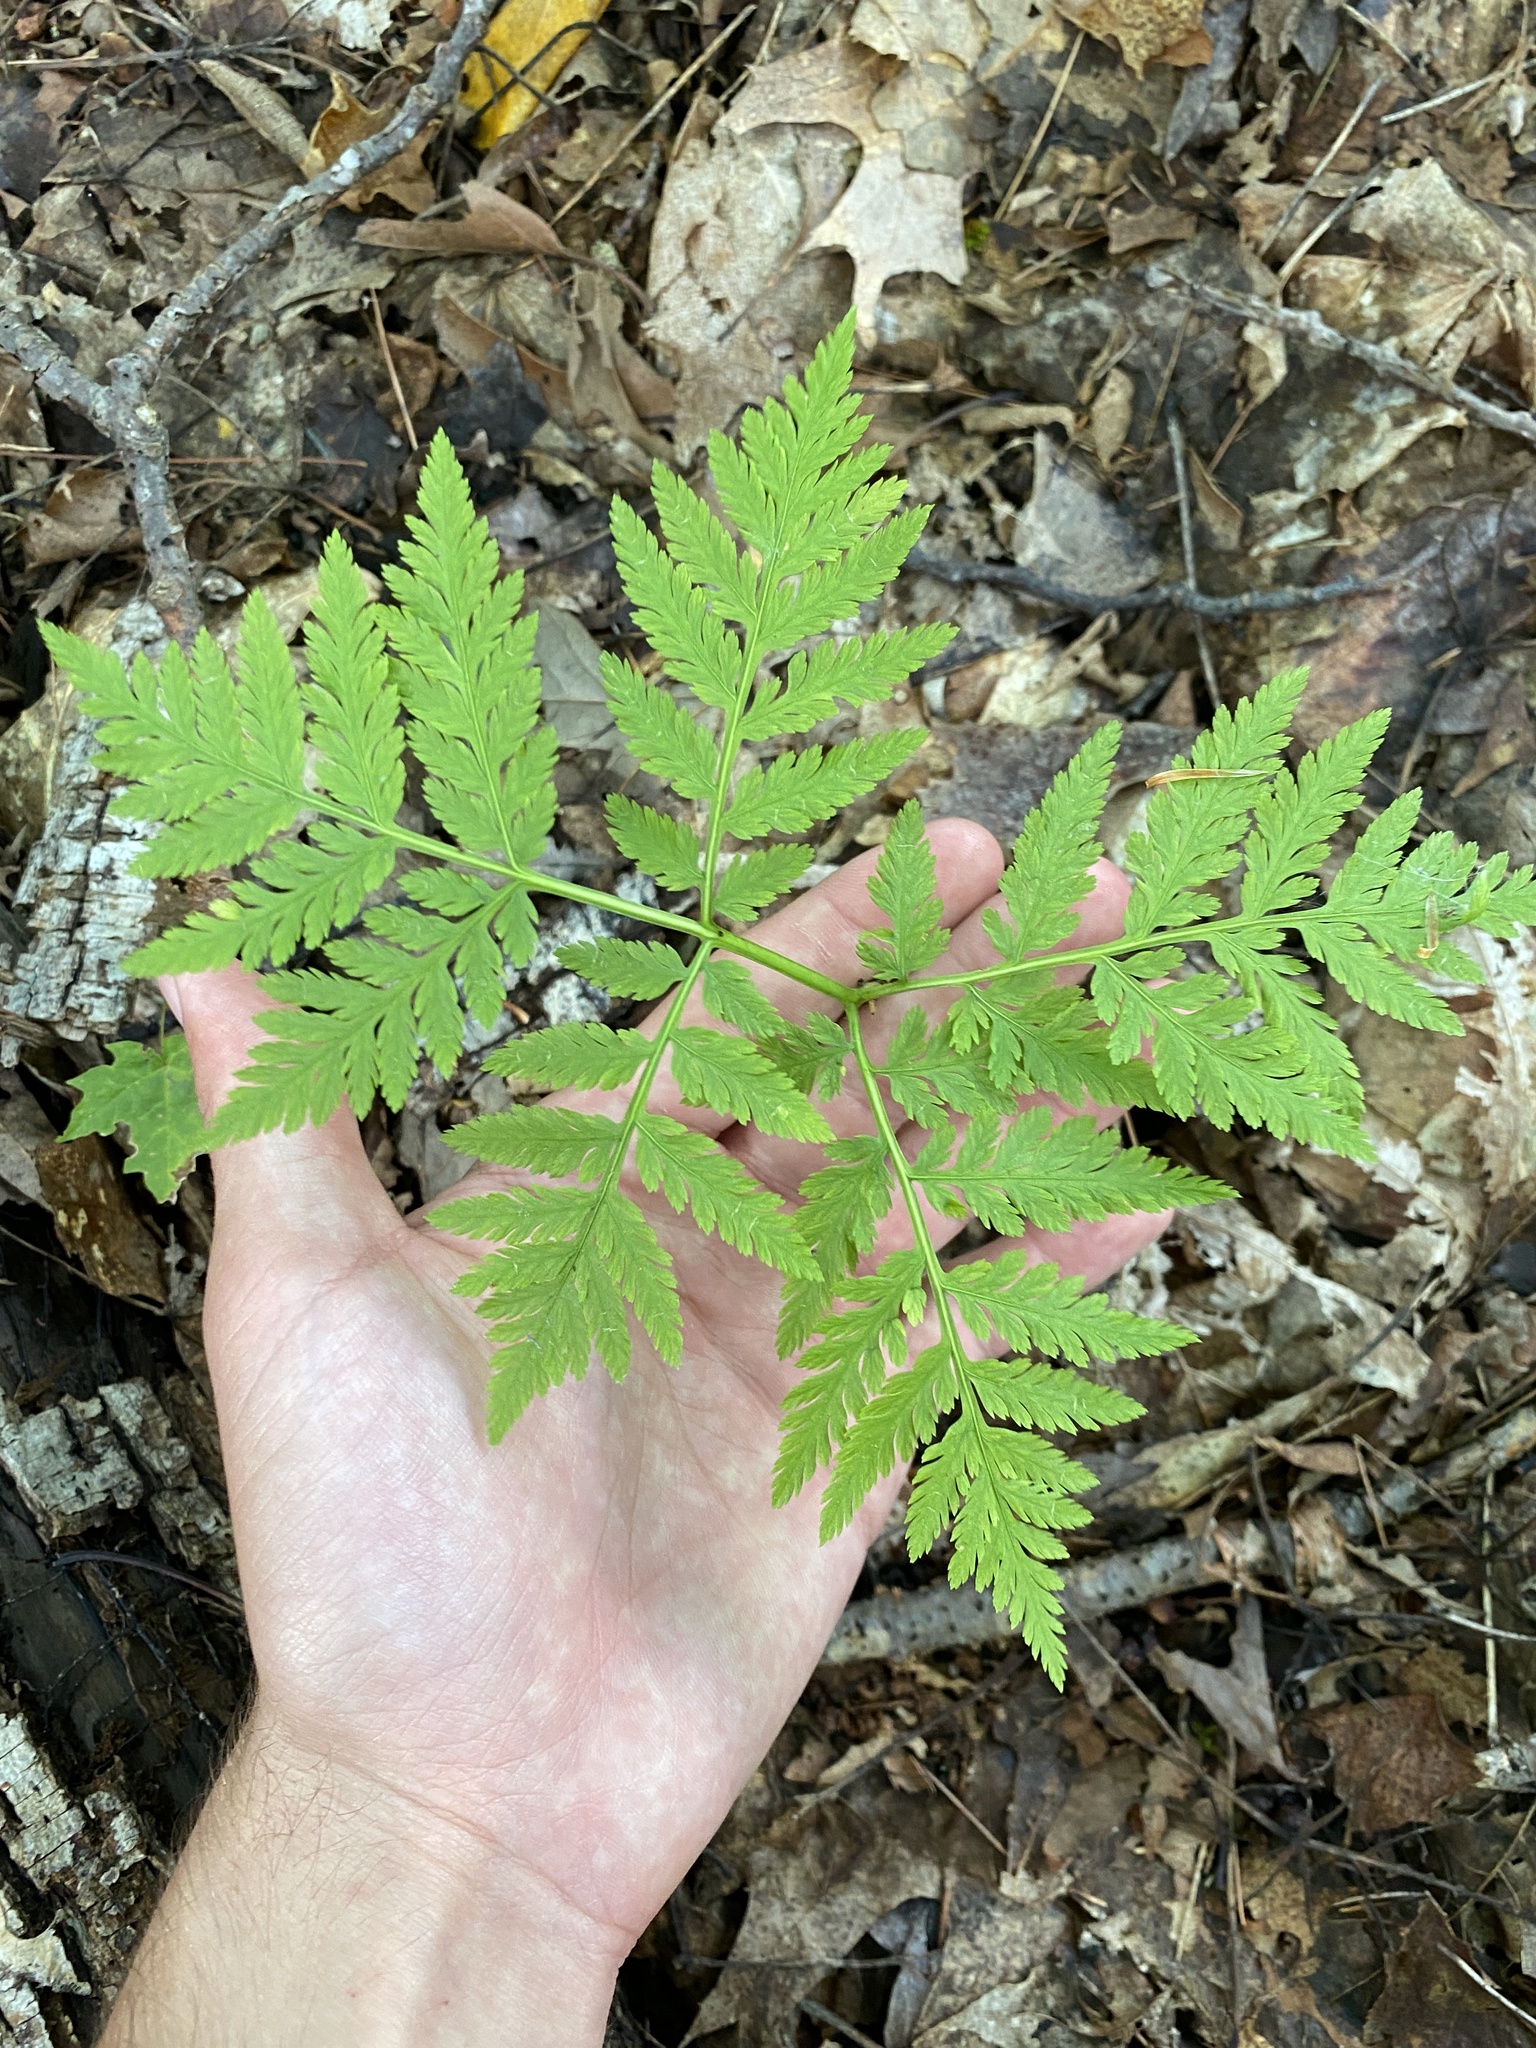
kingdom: Plantae
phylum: Tracheophyta
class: Polypodiopsida
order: Ophioglossales
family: Ophioglossaceae
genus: Botrypus
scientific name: Botrypus virginianus
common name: Common grapefern
